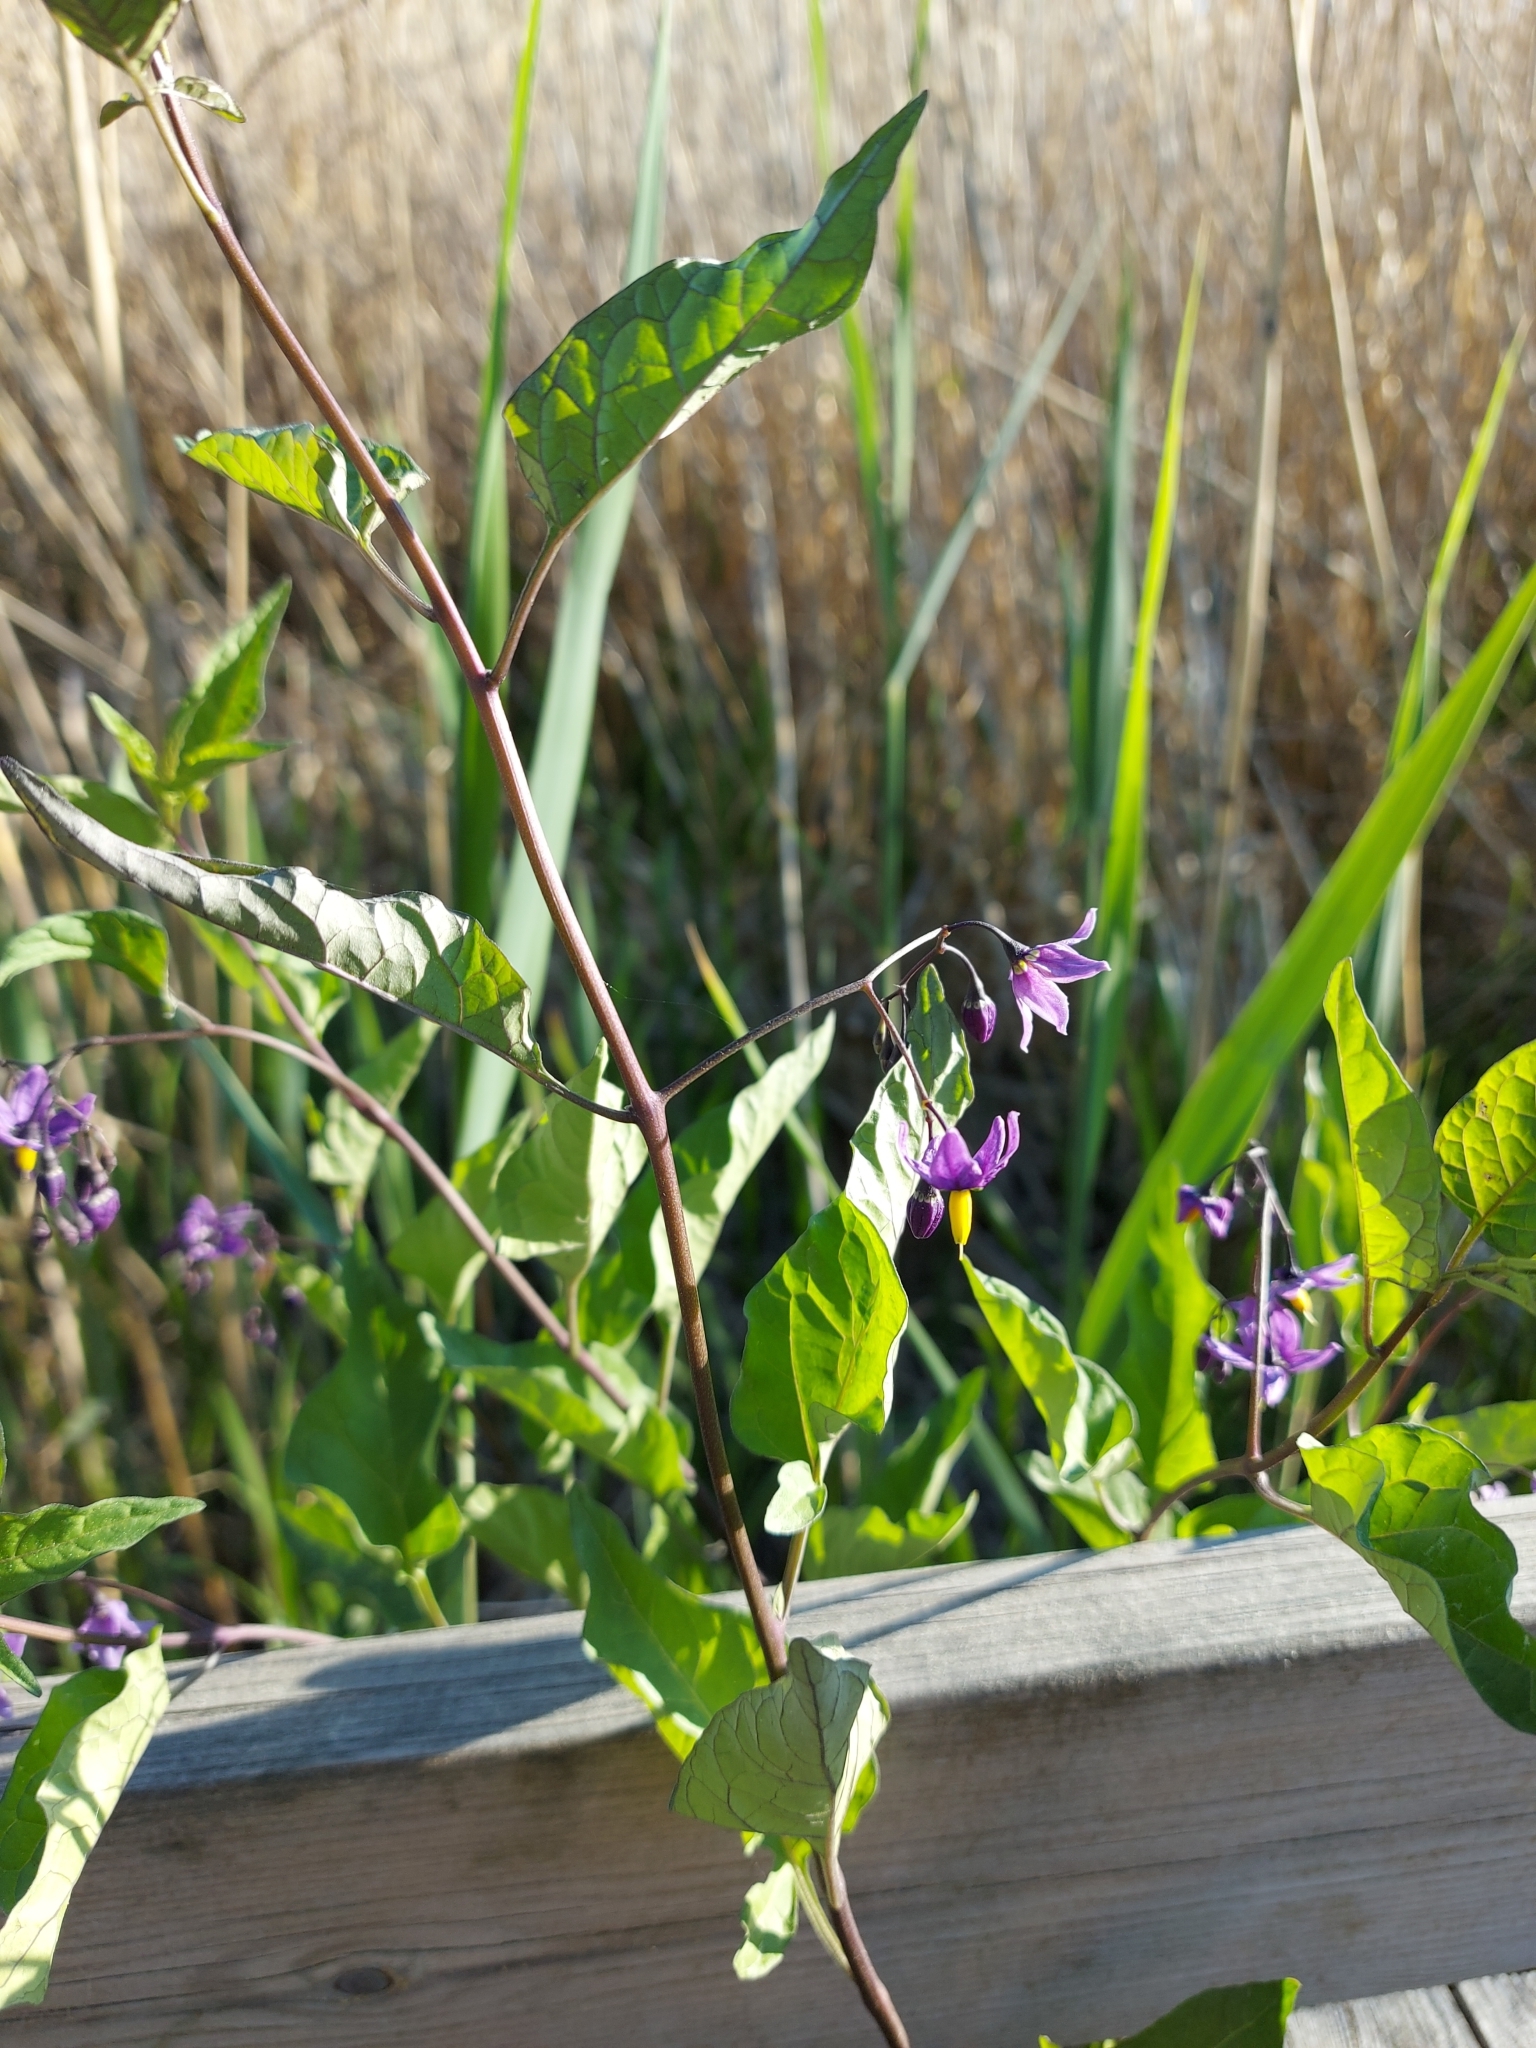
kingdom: Plantae
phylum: Tracheophyta
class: Magnoliopsida
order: Solanales
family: Solanaceae
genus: Solanum
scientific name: Solanum dulcamara
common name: Climbing nightshade
